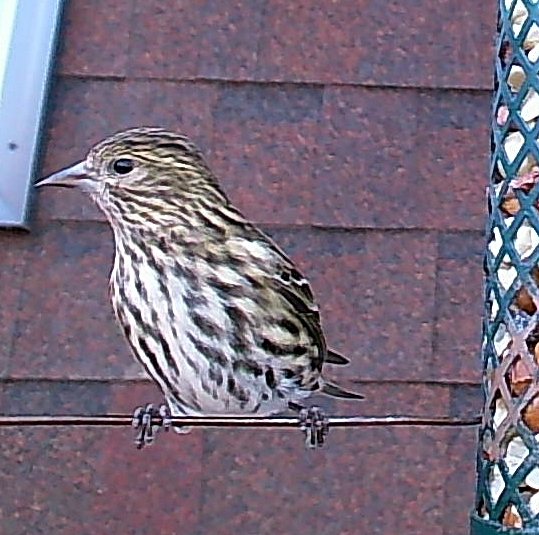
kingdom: Animalia
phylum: Chordata
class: Aves
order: Passeriformes
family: Fringillidae
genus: Spinus
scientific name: Spinus pinus
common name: Pine siskin
